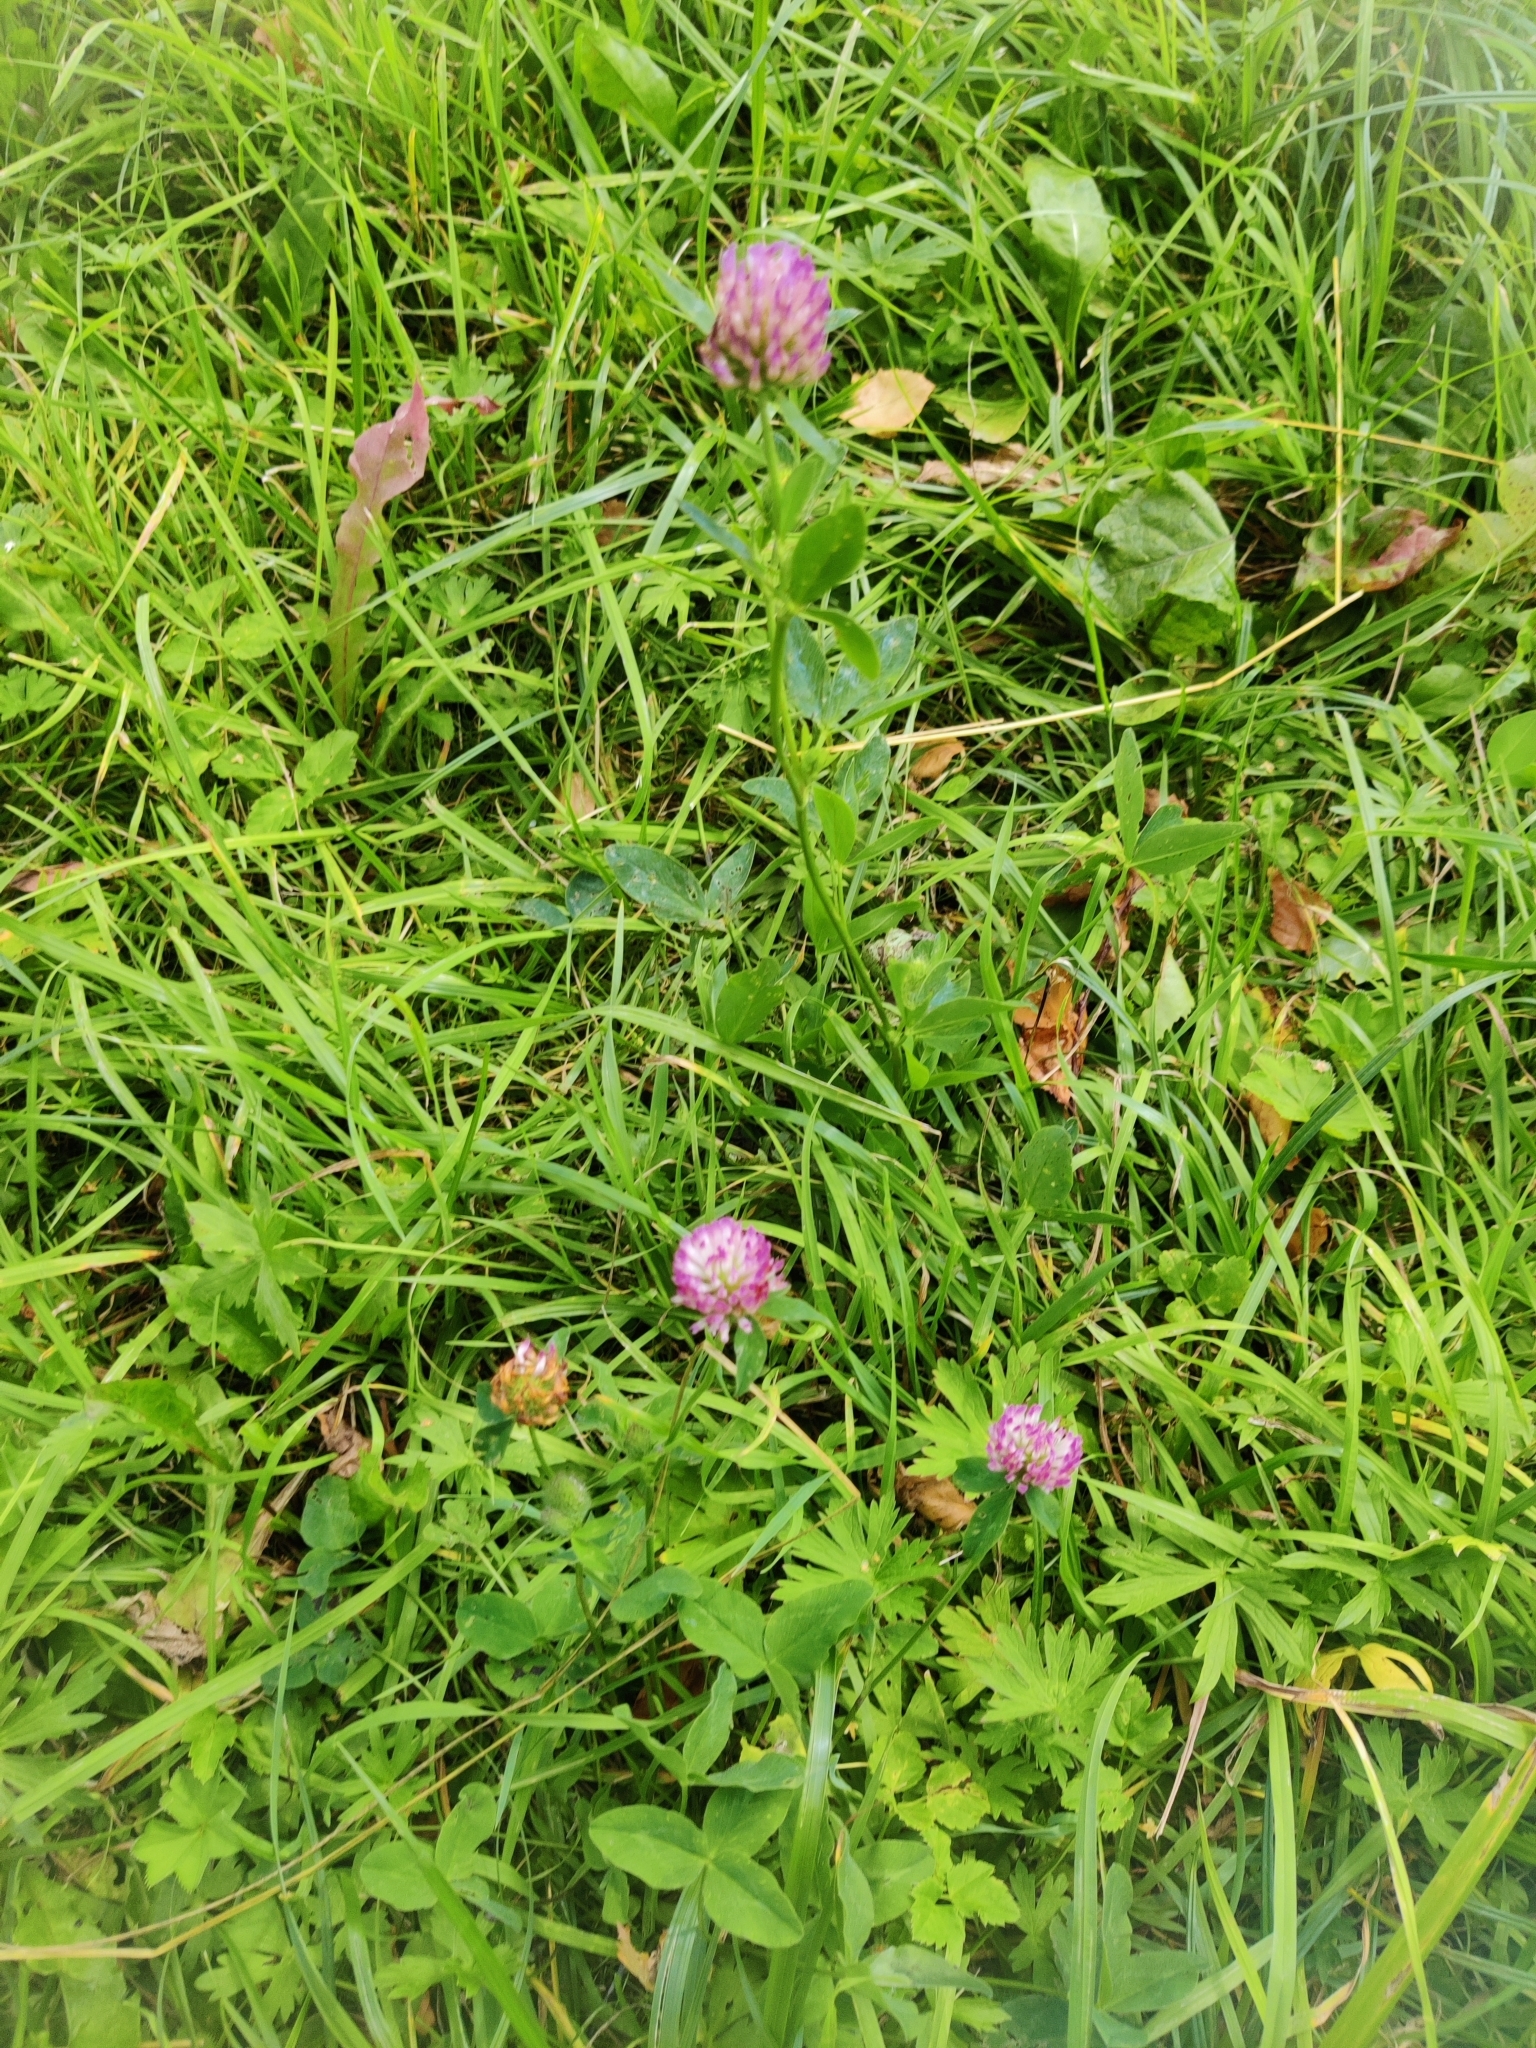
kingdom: Plantae
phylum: Tracheophyta
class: Magnoliopsida
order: Fabales
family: Fabaceae
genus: Trifolium
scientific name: Trifolium pratense
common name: Red clover
